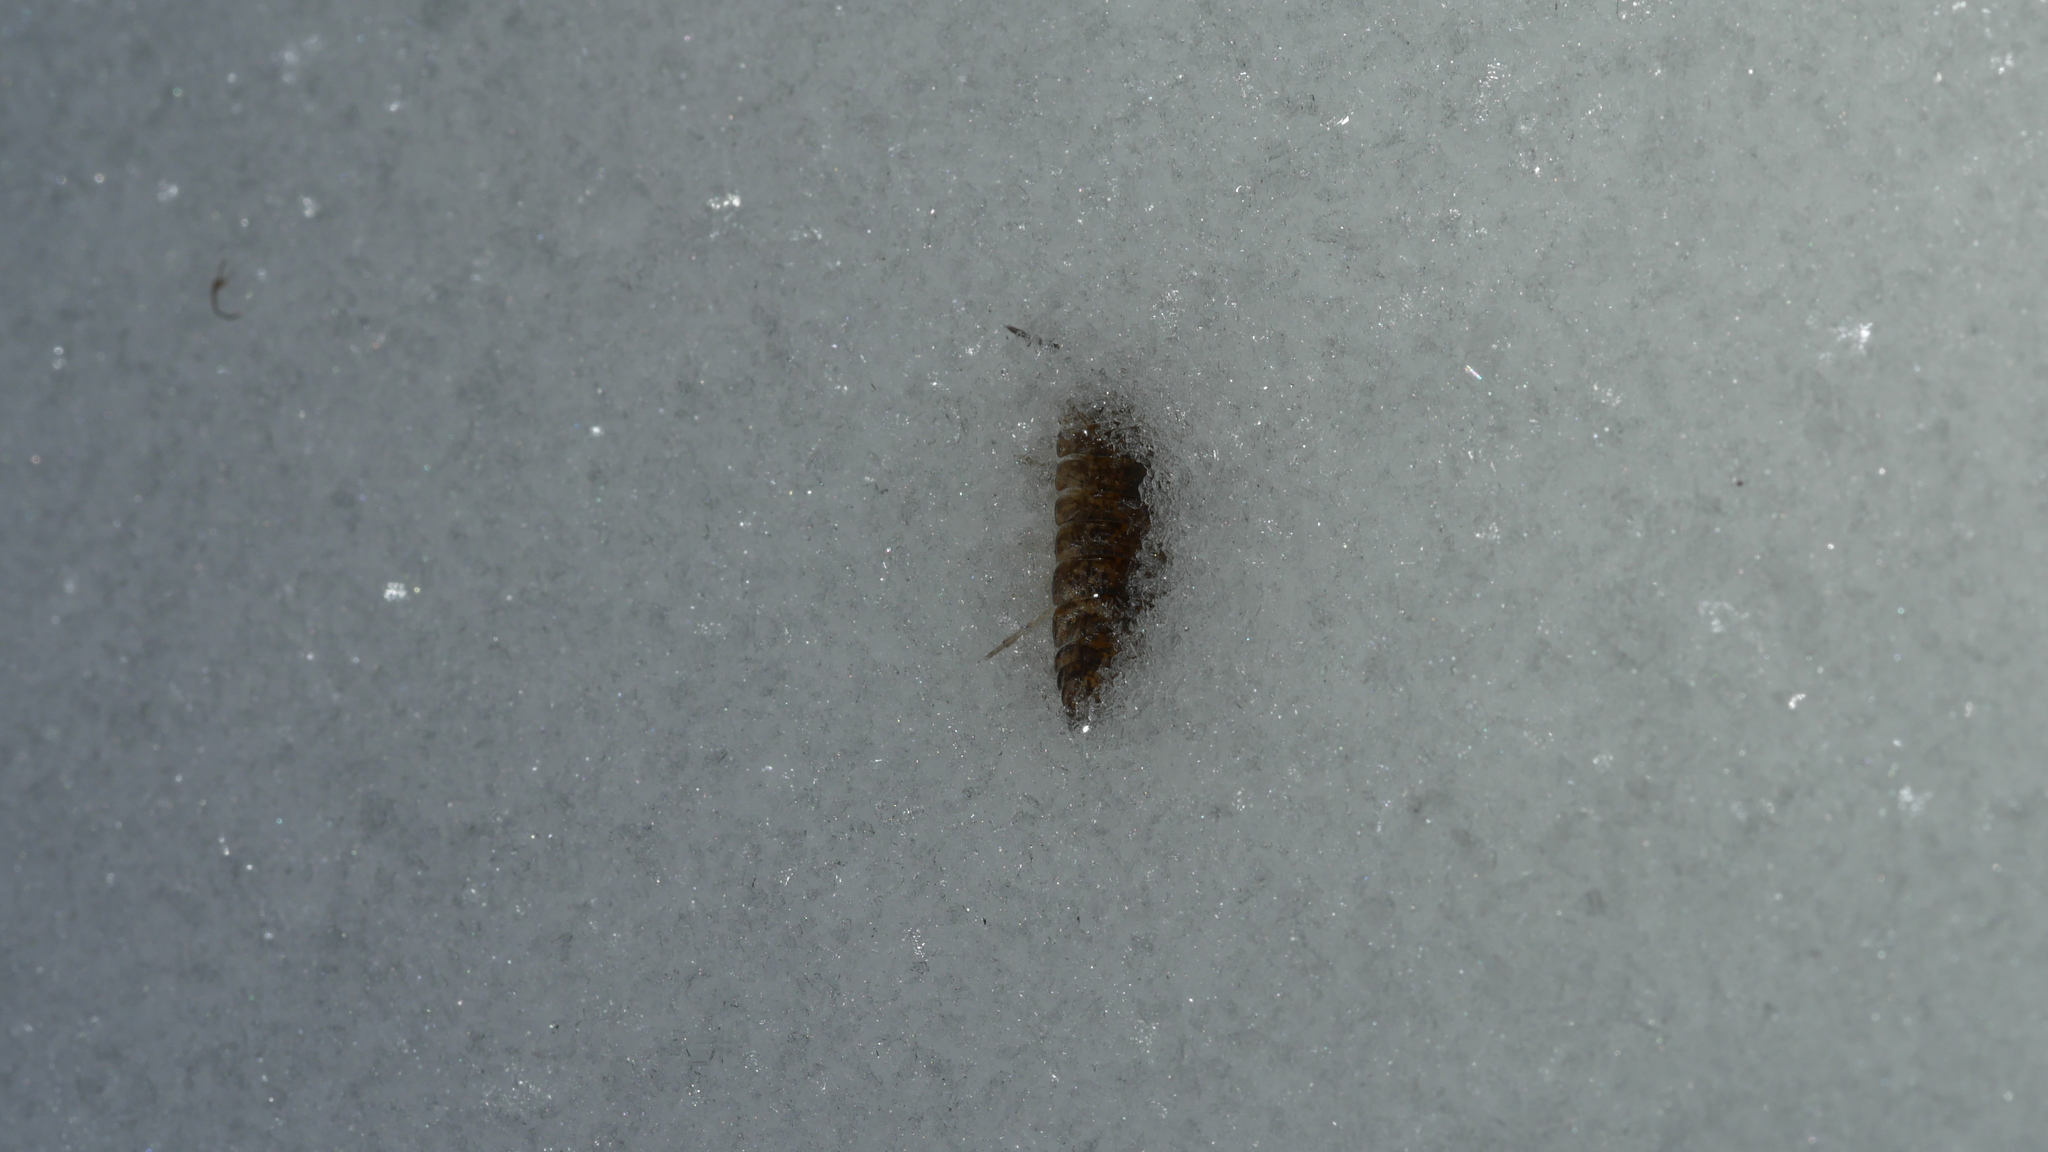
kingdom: Animalia
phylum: Arthropoda
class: Malacostraca
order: Isopoda
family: Porcellionidae
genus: Porcellio
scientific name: Porcellio scaber
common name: Common rough woodlouse
